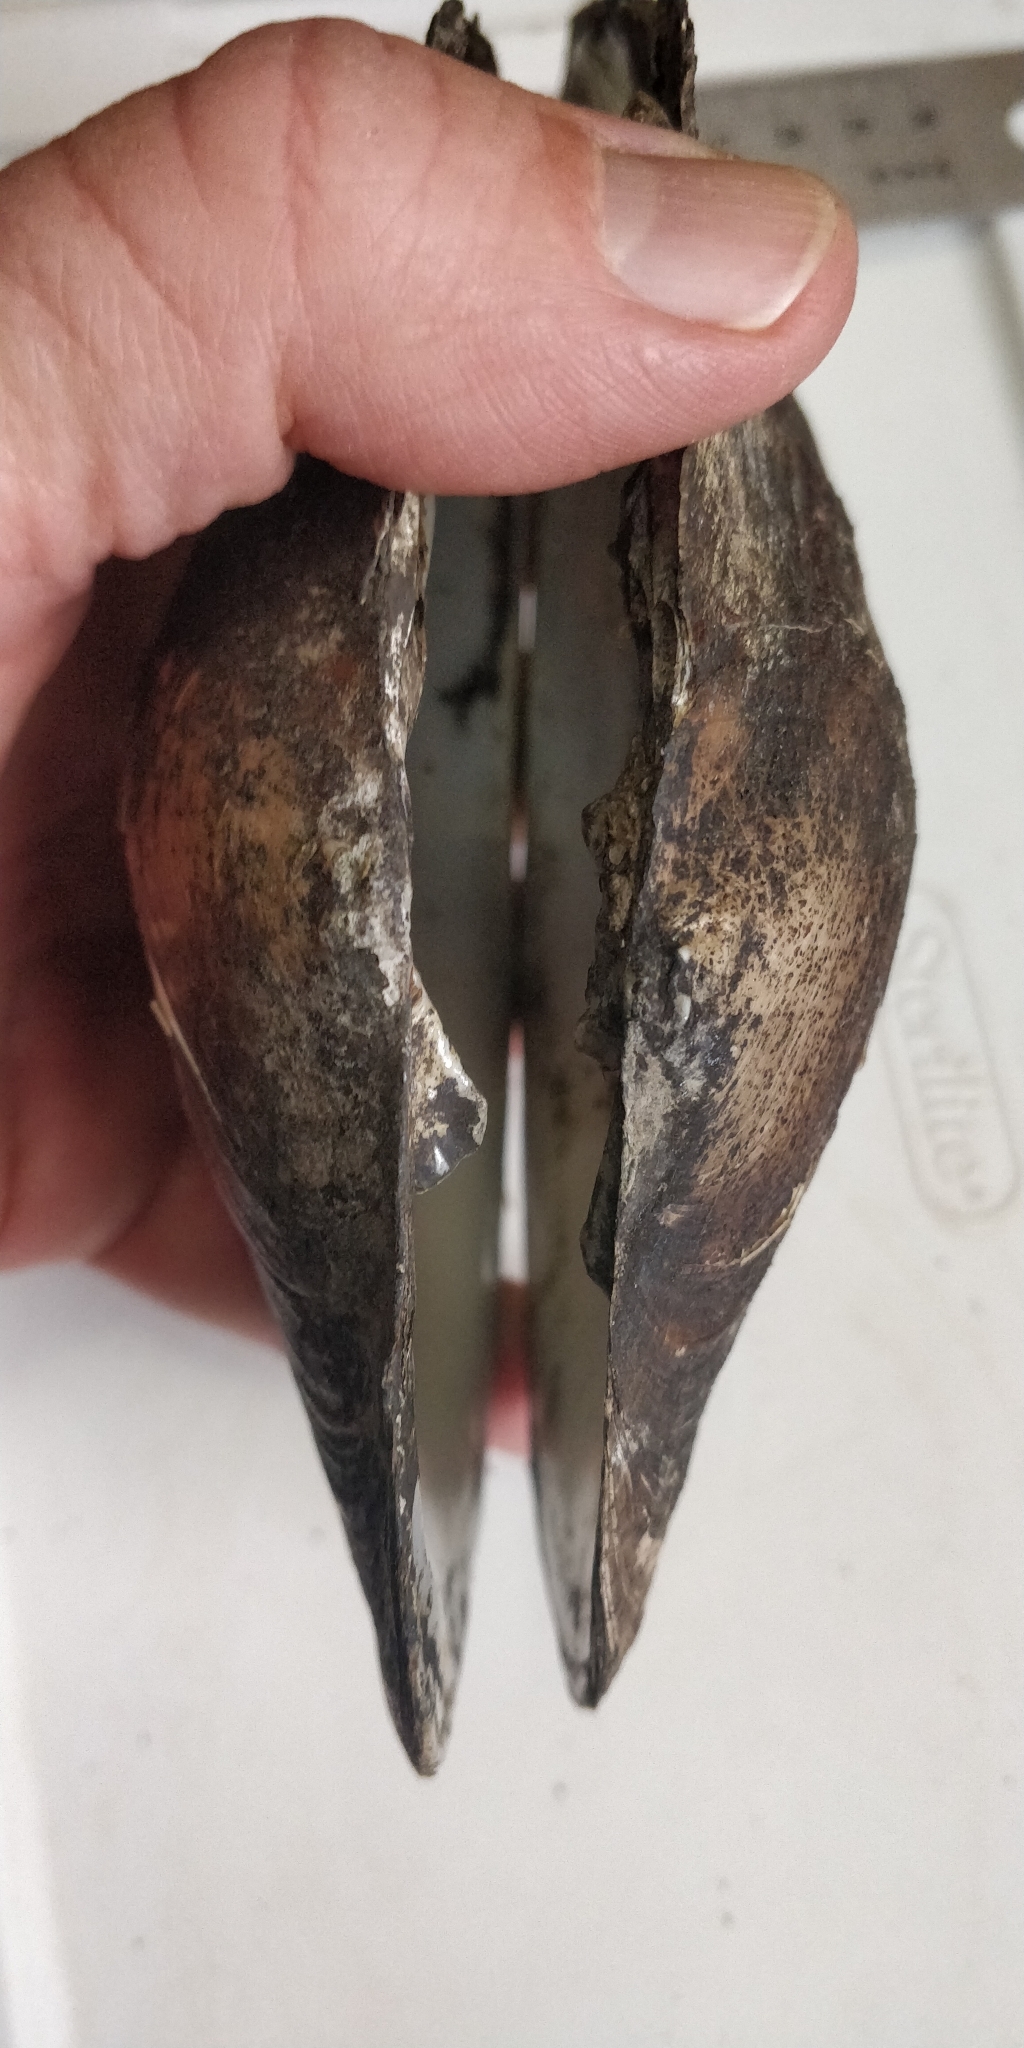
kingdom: Animalia
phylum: Mollusca
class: Bivalvia
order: Unionida
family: Unionidae
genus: Lasmigona
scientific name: Lasmigona complanata
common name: White heelsplitter
